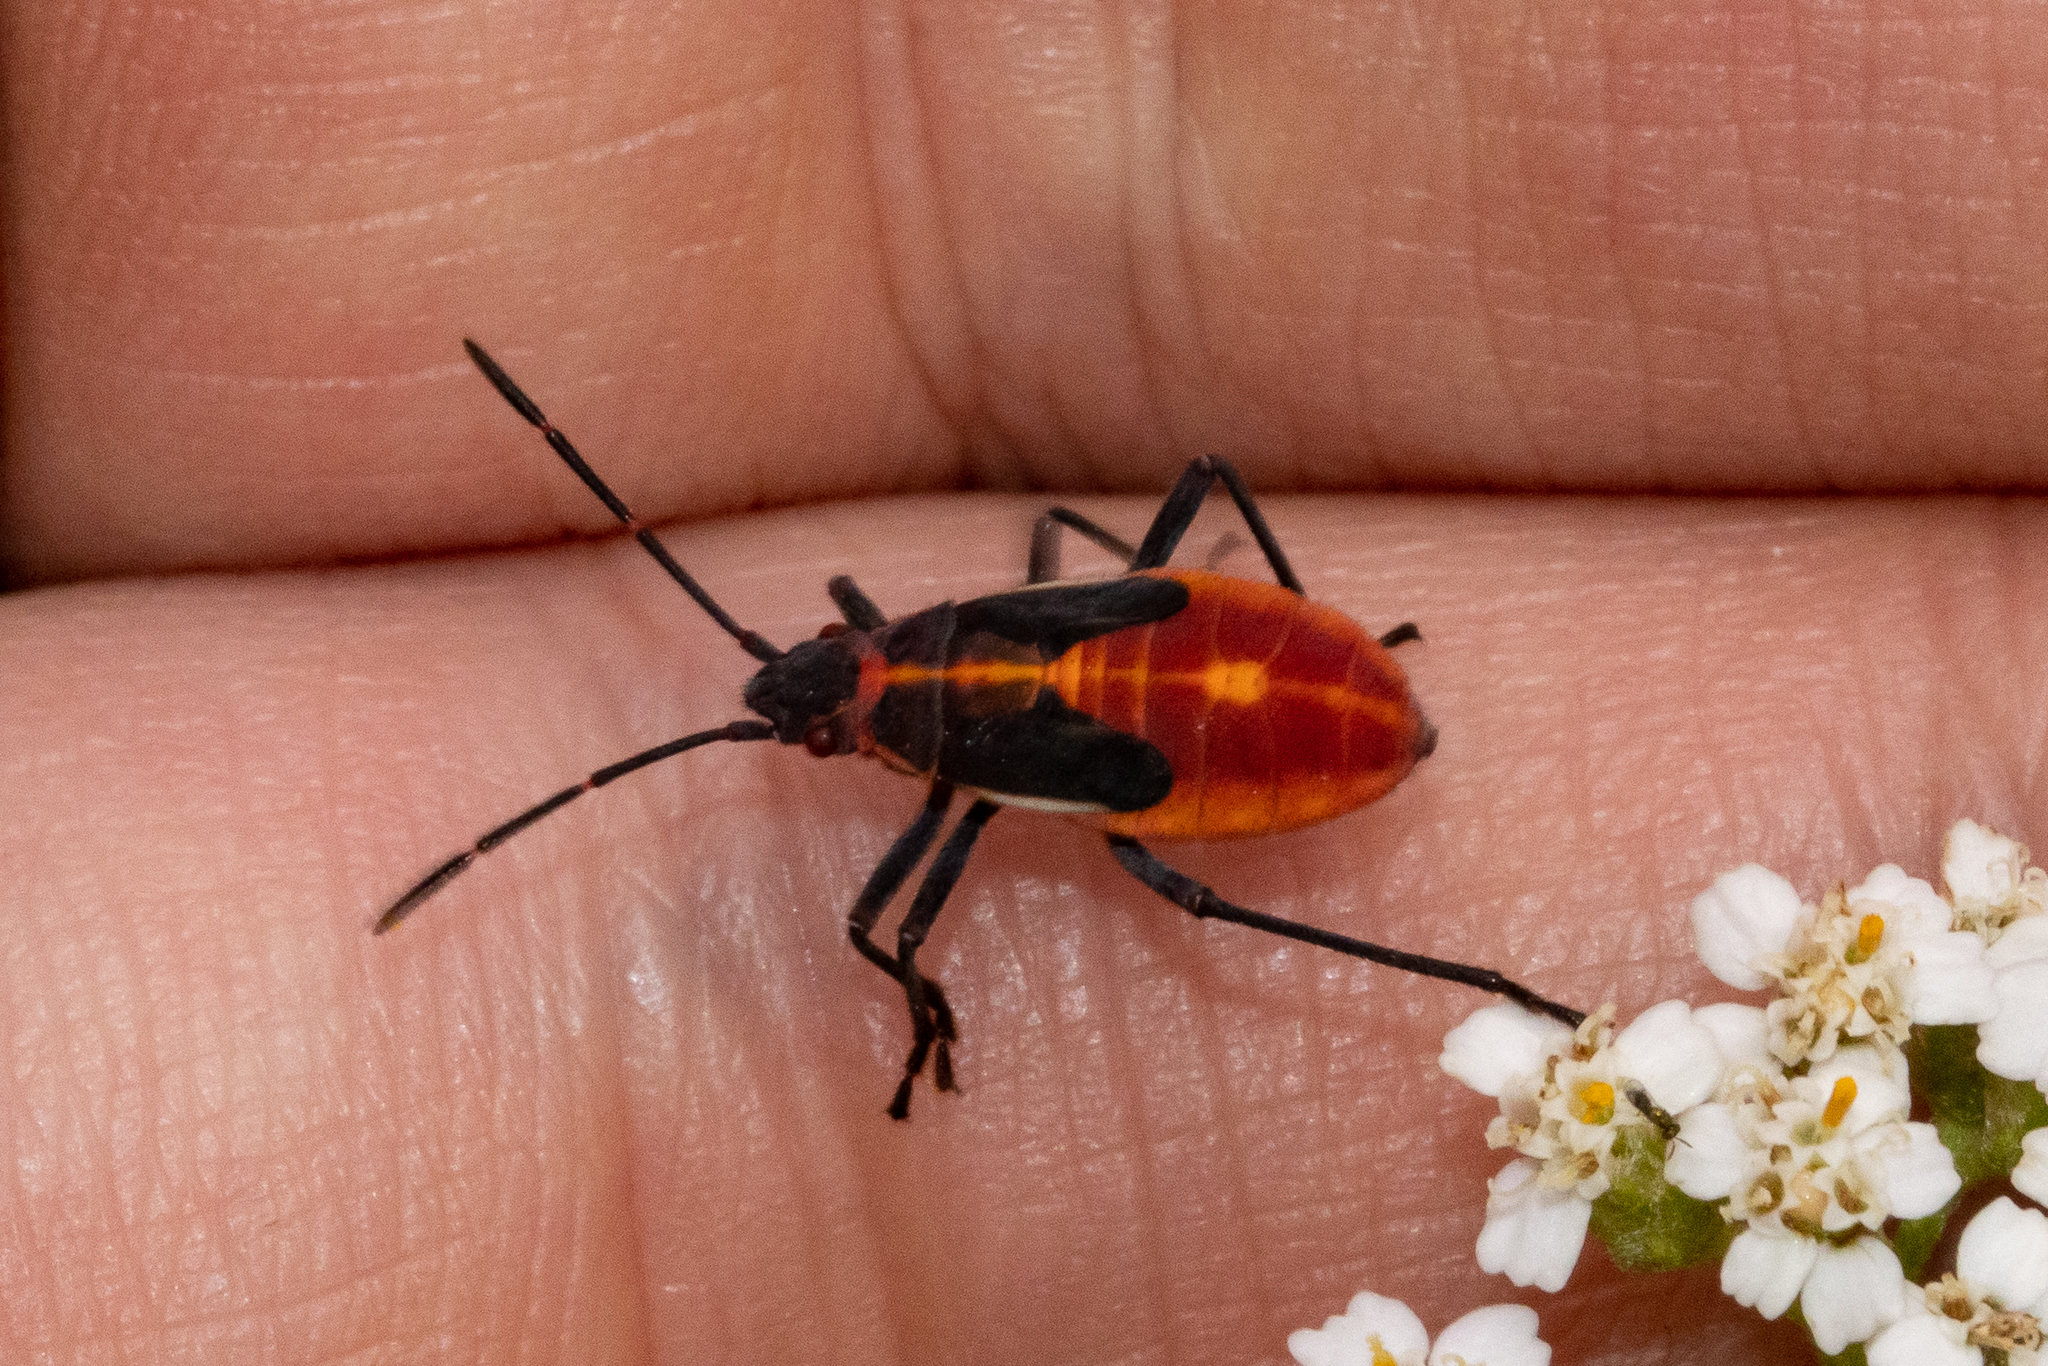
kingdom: Animalia
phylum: Arthropoda
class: Insecta
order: Hemiptera
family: Rhopalidae
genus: Boisea
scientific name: Boisea trivittata
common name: Boxelder bug
